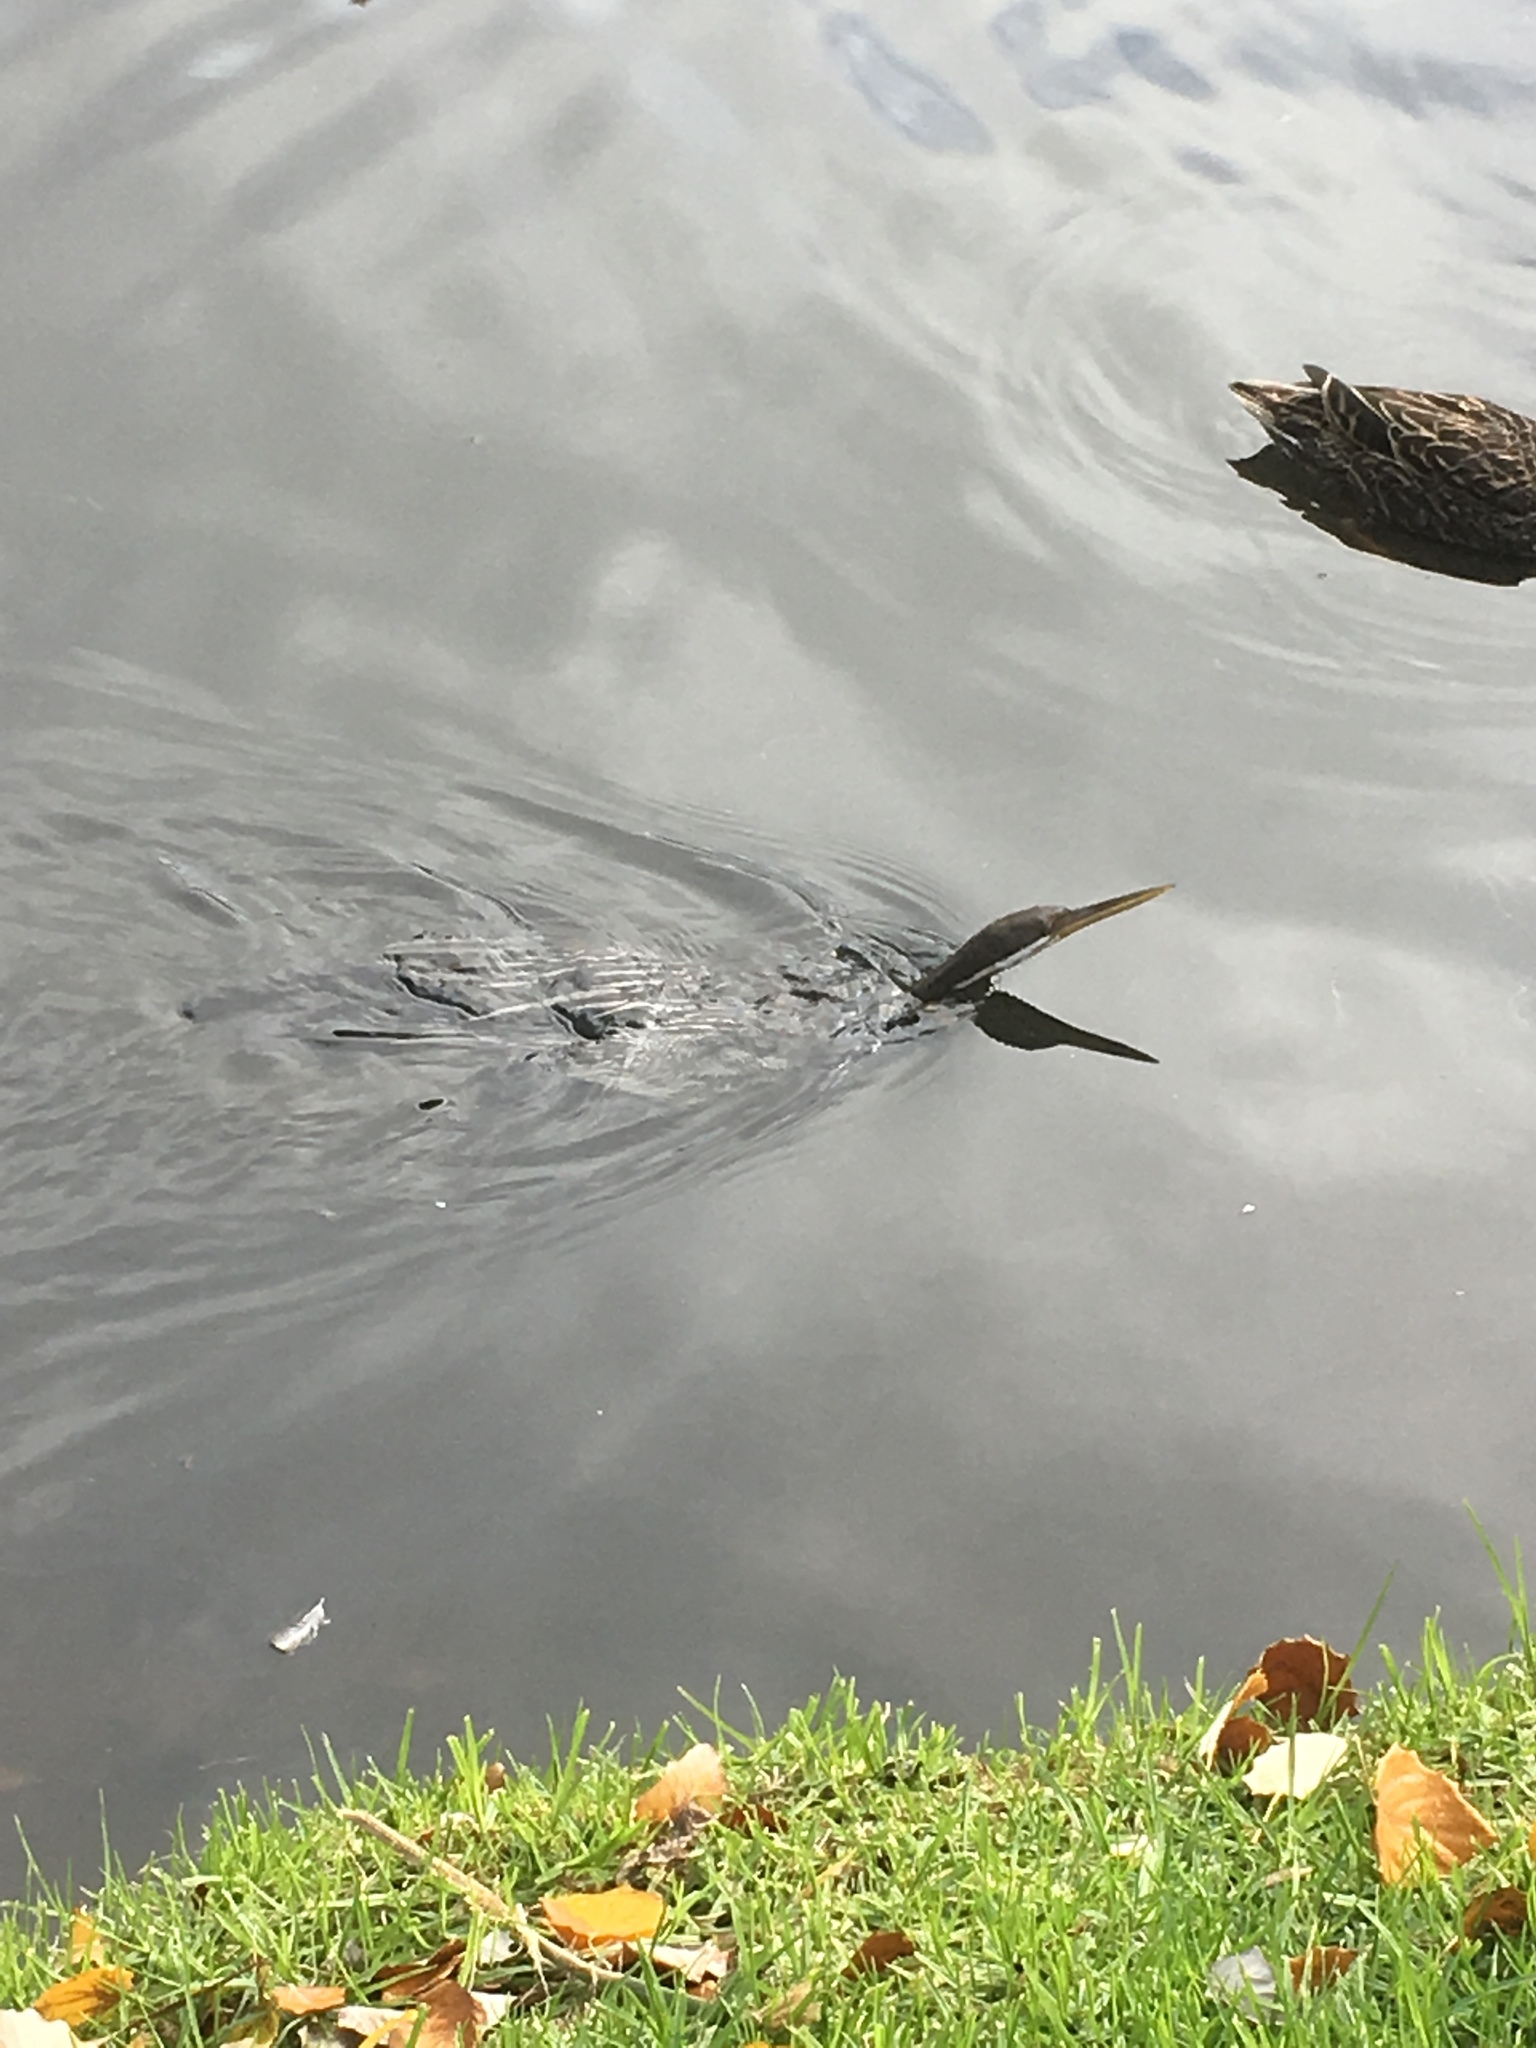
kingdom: Animalia
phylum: Chordata
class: Aves
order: Suliformes
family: Anhingidae
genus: Anhinga
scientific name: Anhinga novaehollandiae
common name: Australasian darter
